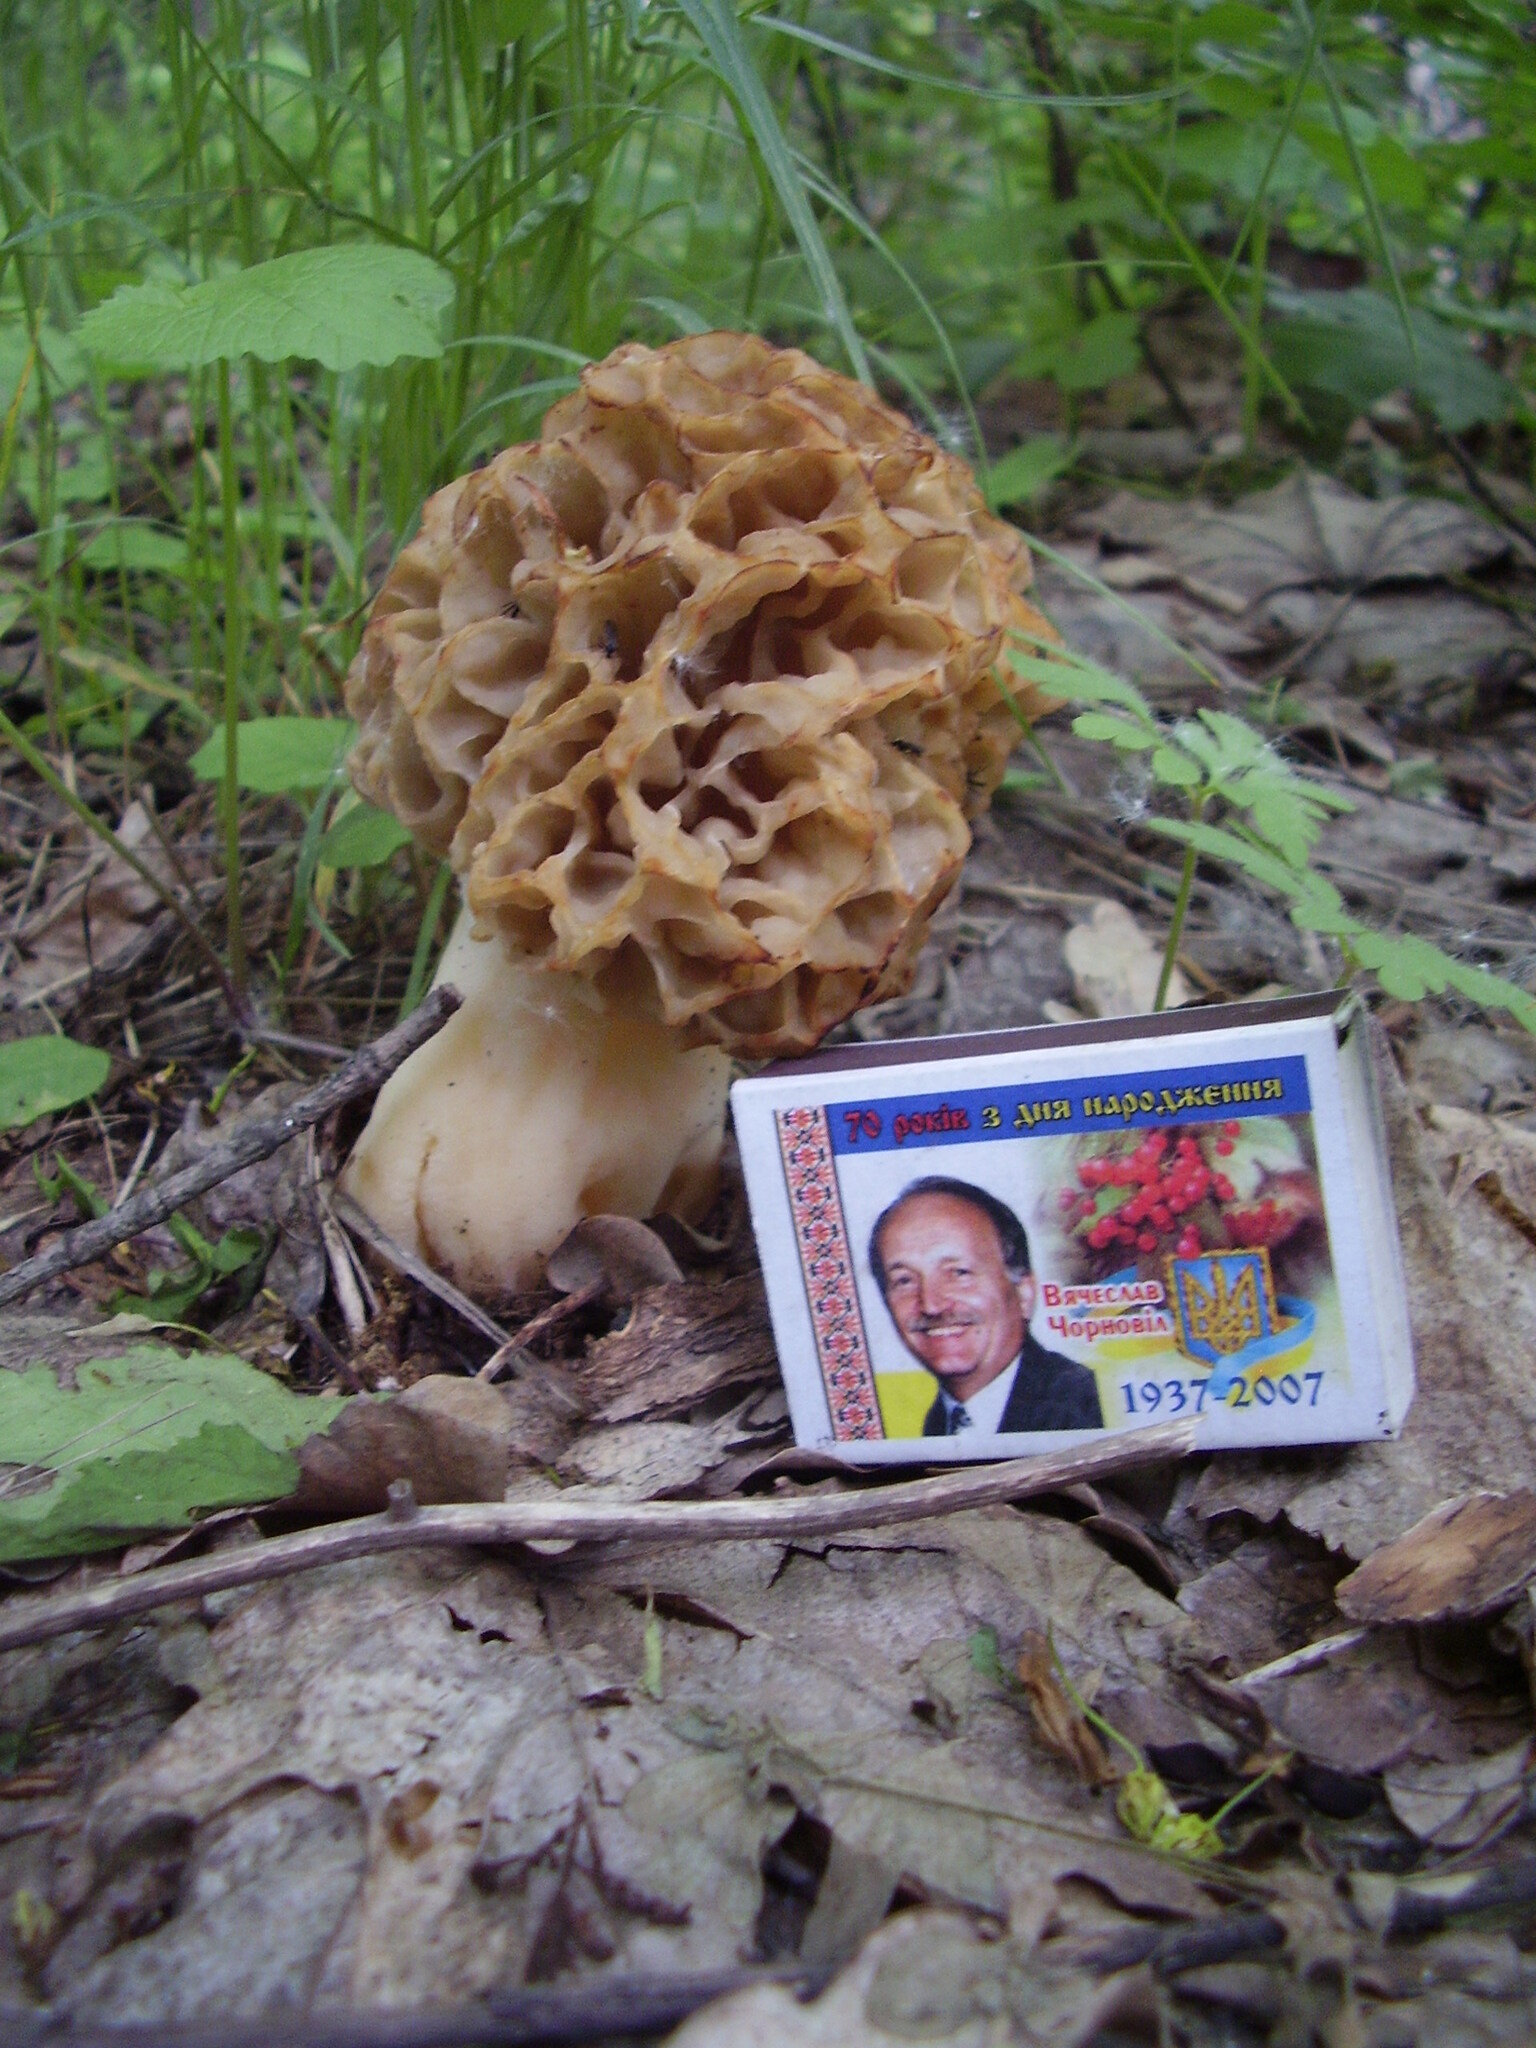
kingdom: Fungi
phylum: Ascomycota
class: Pezizomycetes
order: Pezizales
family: Morchellaceae
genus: Morchella
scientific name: Morchella esculenta
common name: Morel
